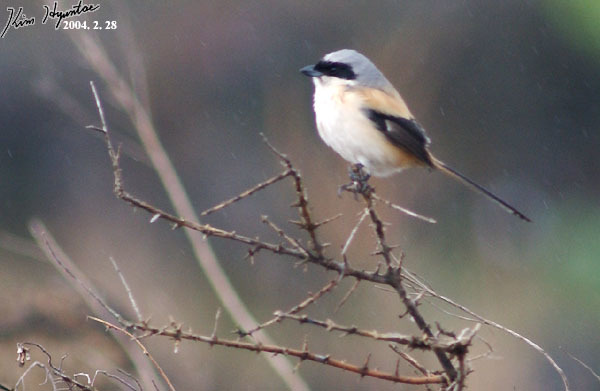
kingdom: Animalia
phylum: Chordata
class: Aves
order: Passeriformes
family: Laniidae
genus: Lanius
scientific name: Lanius schach
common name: Long-tailed shrike
